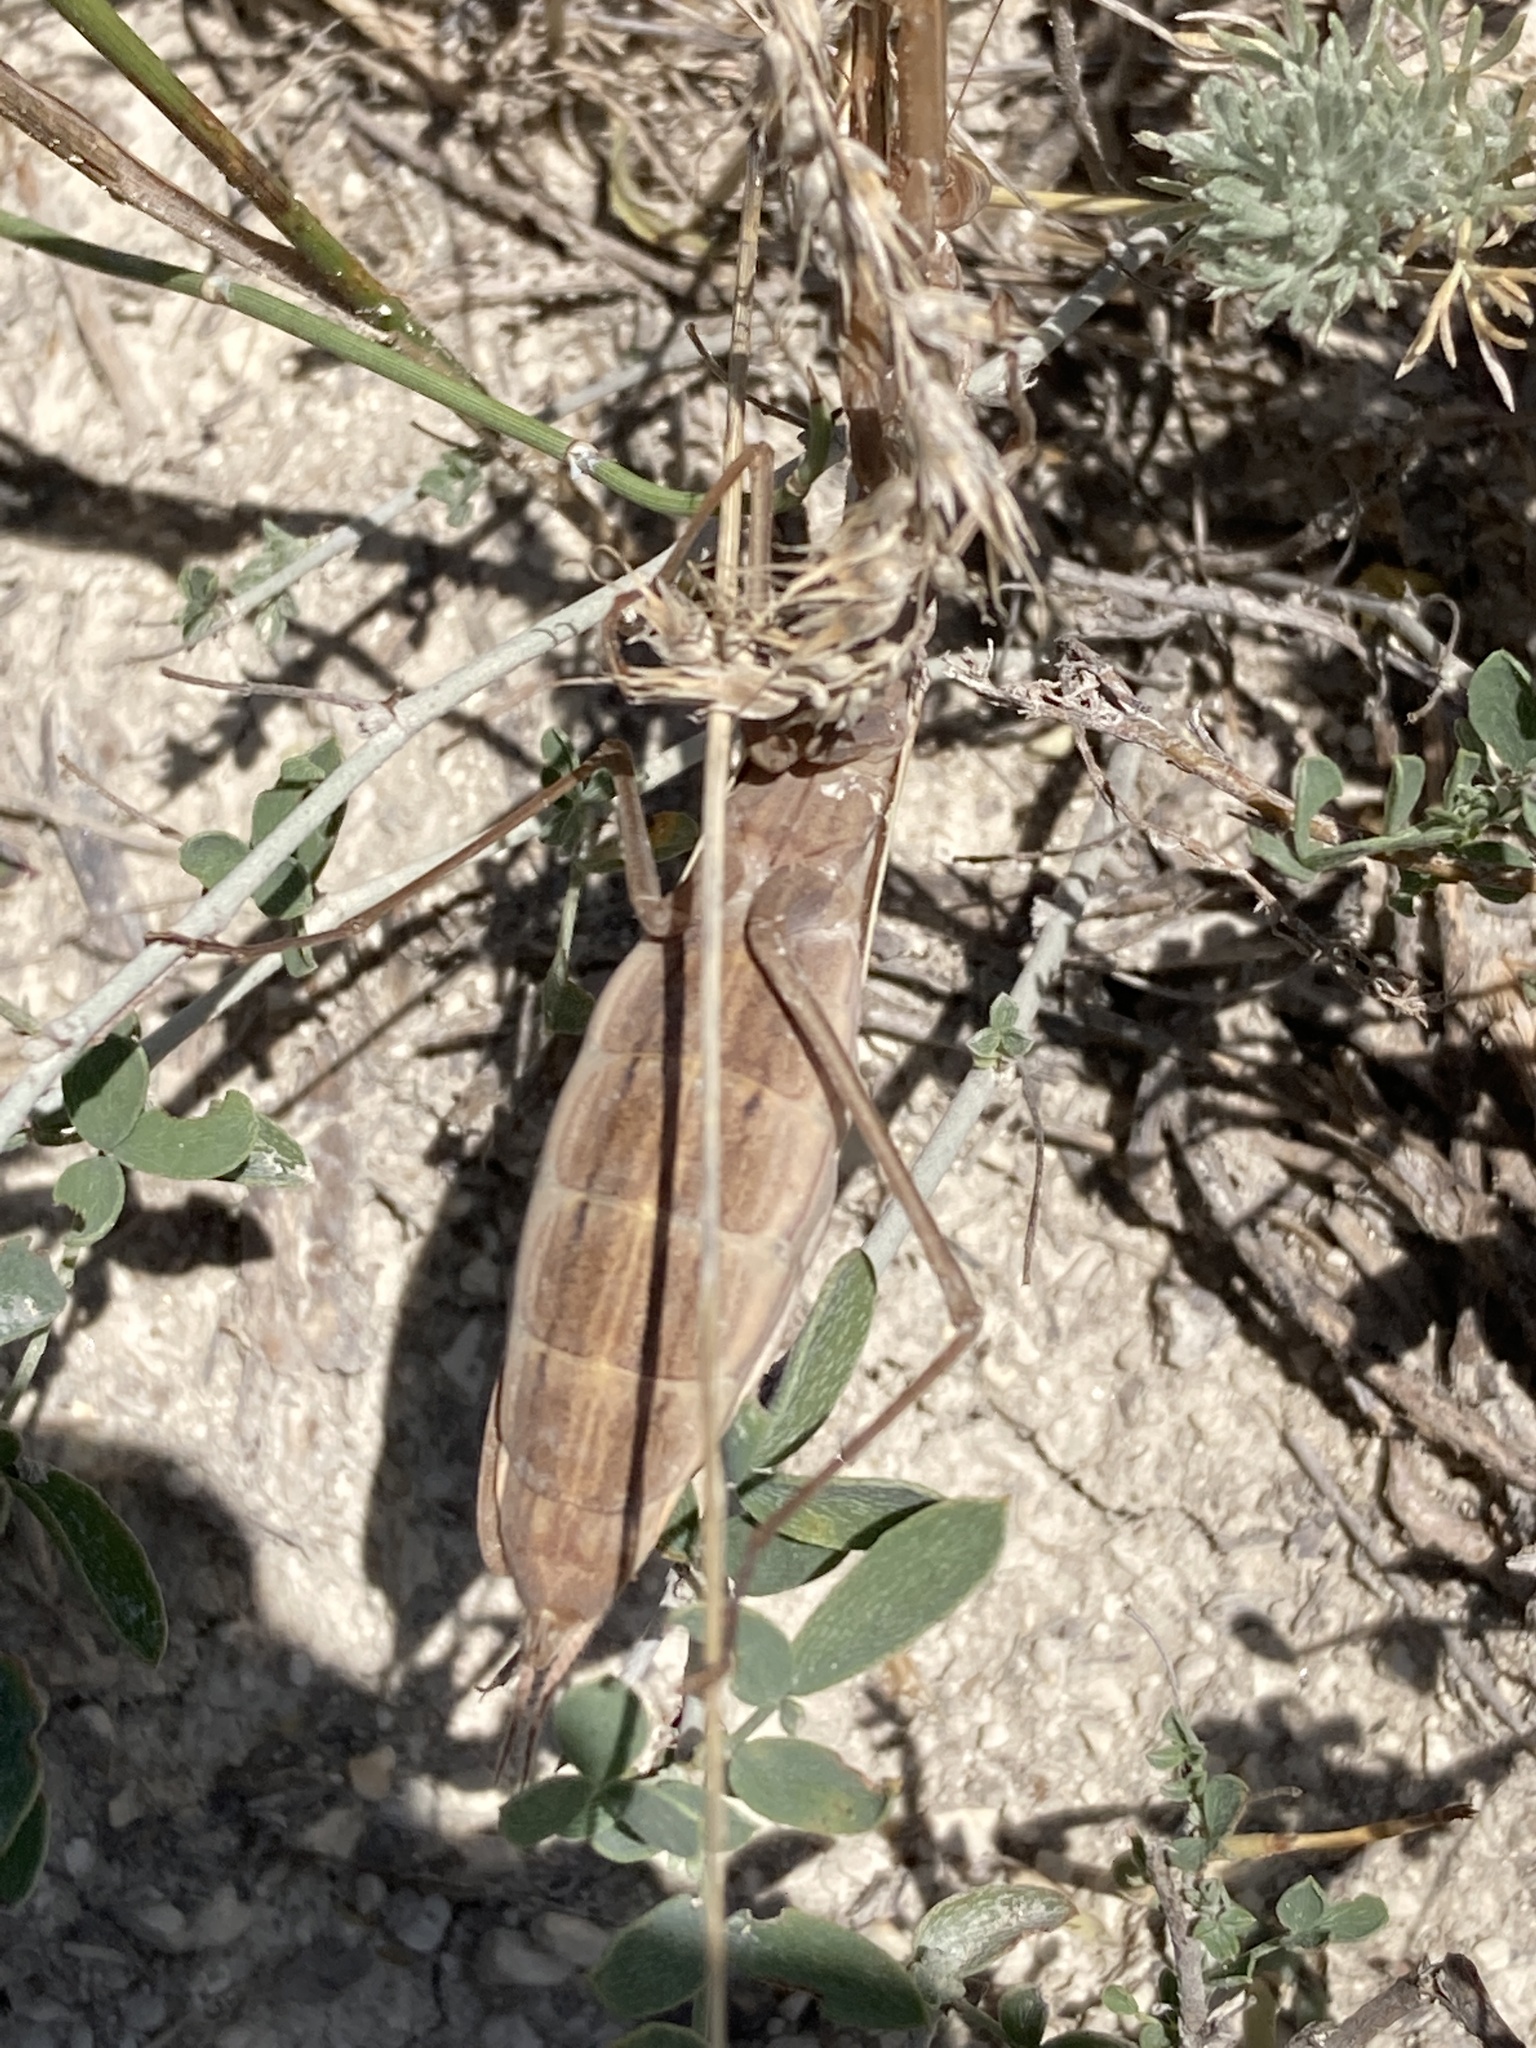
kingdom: Animalia
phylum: Arthropoda
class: Insecta
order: Mantodea
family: Mantidae
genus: Mantis
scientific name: Mantis religiosa
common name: Praying mantis
